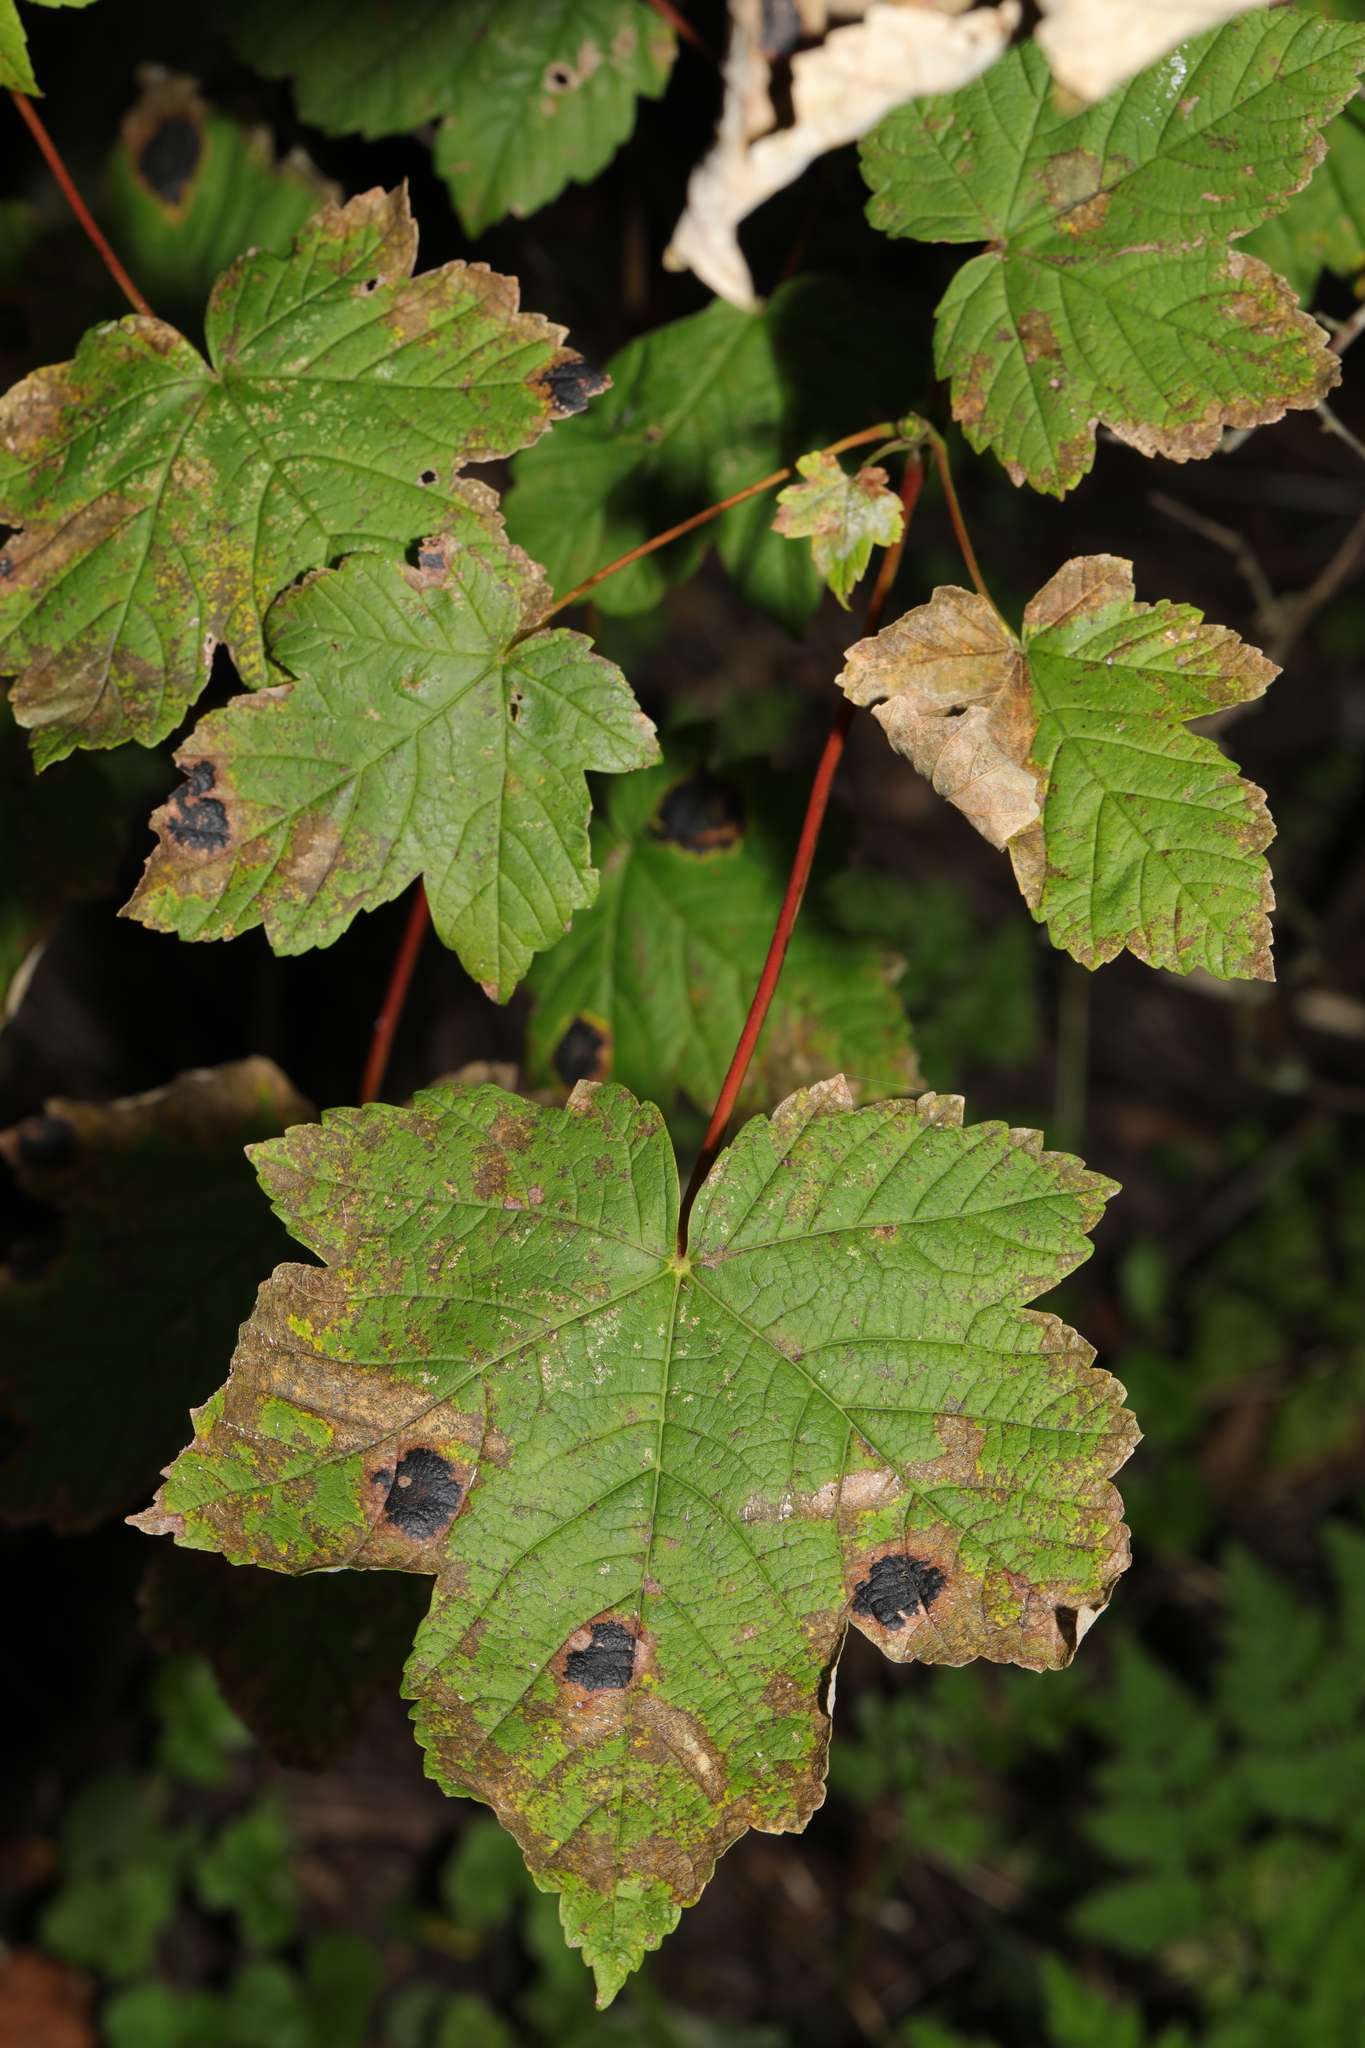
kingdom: Plantae
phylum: Tracheophyta
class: Magnoliopsida
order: Sapindales
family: Sapindaceae
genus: Acer
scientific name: Acer pseudoplatanus
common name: Sycamore
